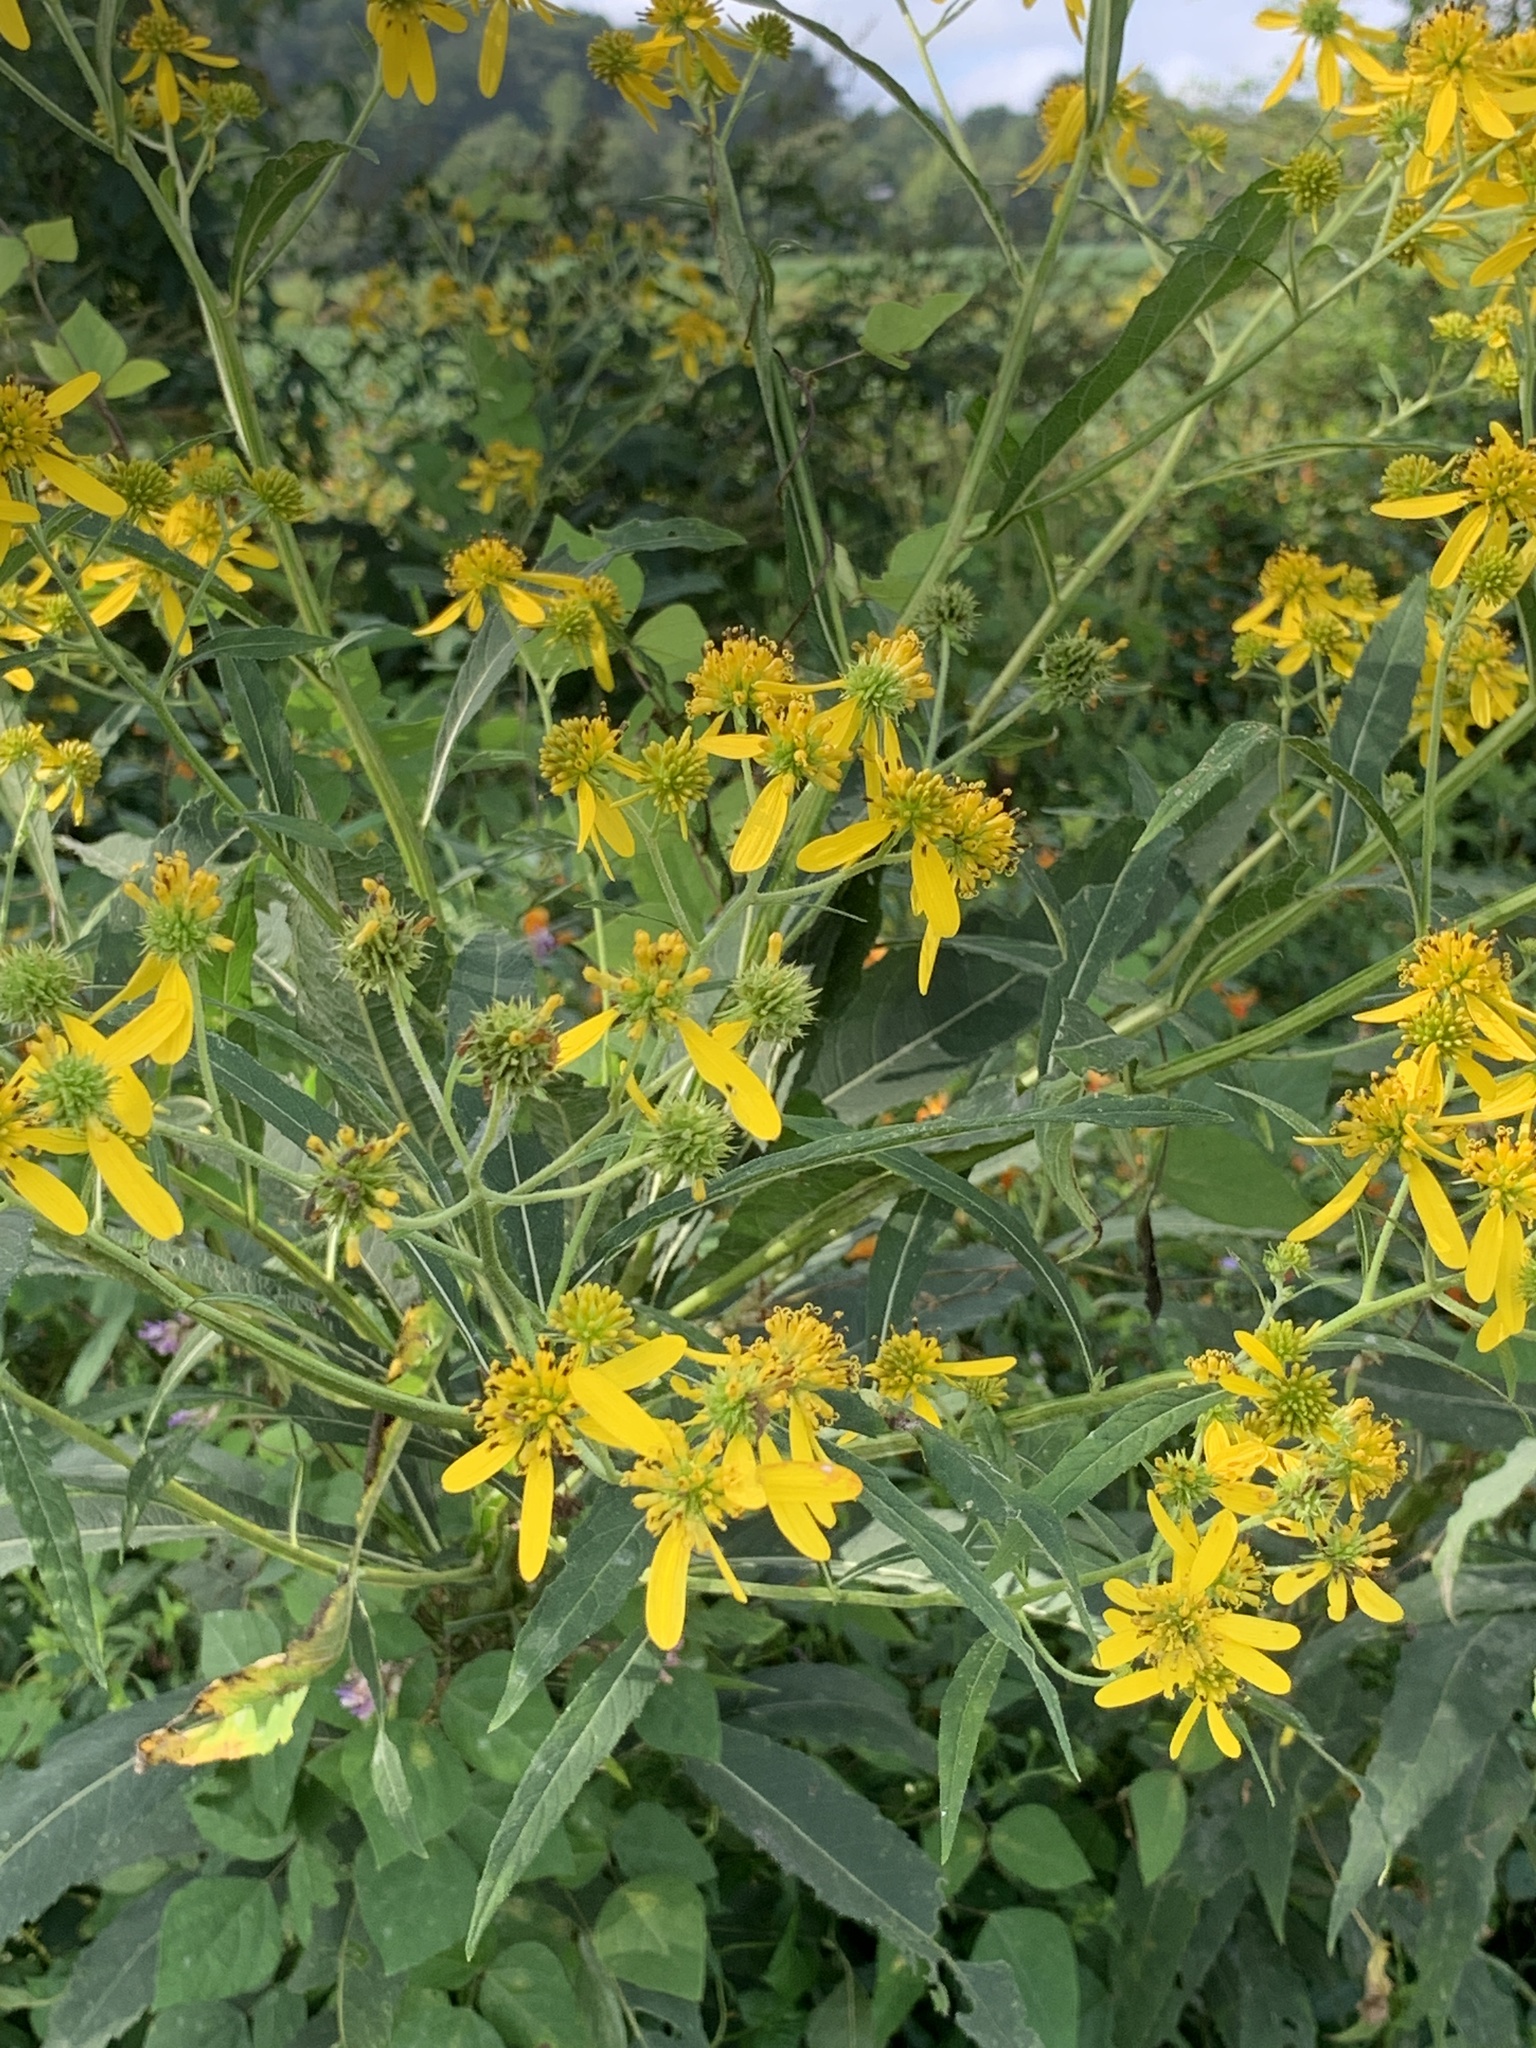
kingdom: Plantae
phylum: Tracheophyta
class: Magnoliopsida
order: Asterales
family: Asteraceae
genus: Verbesina
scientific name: Verbesina alternifolia
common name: Wingstem
